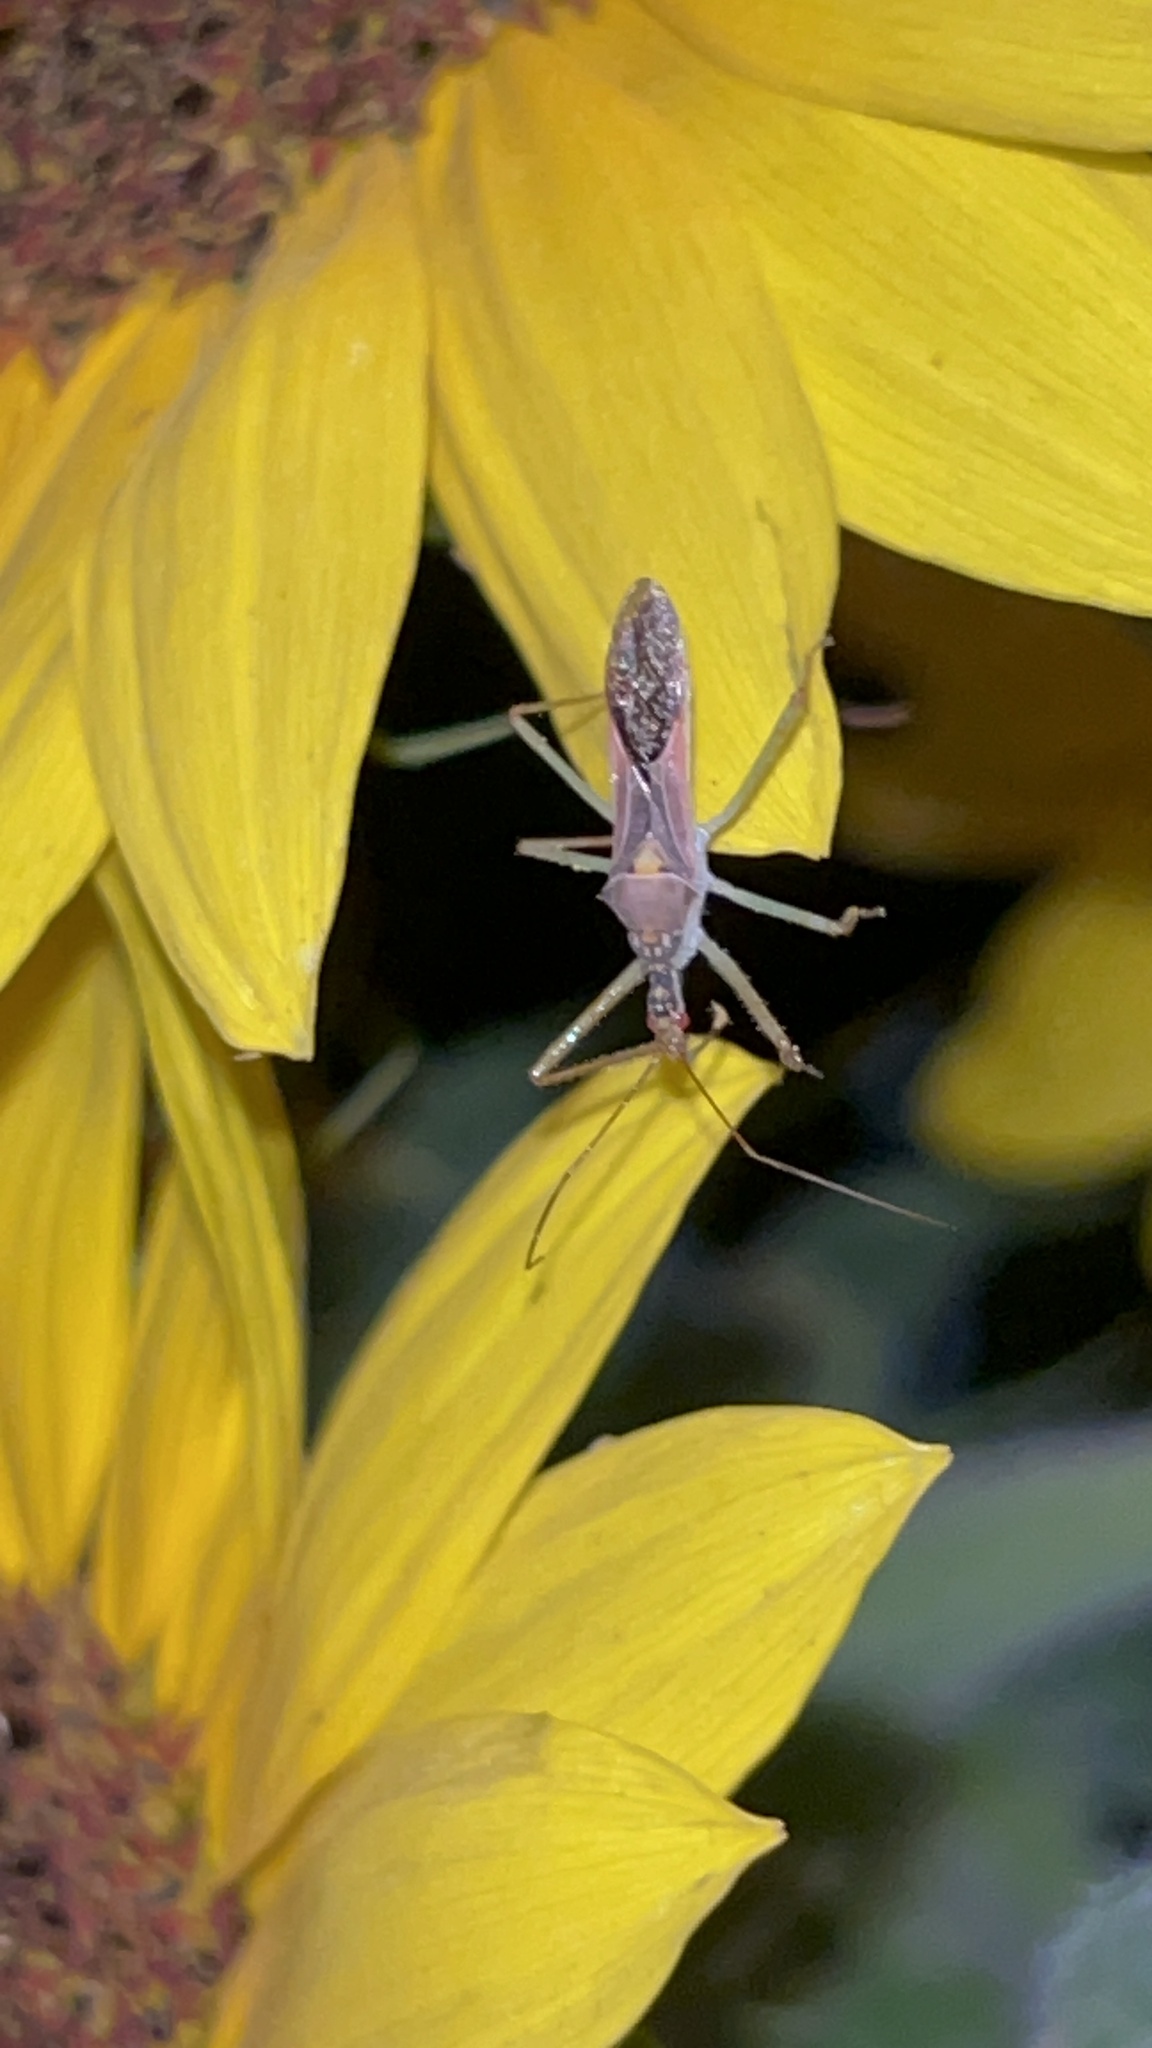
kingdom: Animalia
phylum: Arthropoda
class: Insecta
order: Hemiptera
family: Reduviidae
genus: Zelus
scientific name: Zelus renardii
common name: Assassin bug
